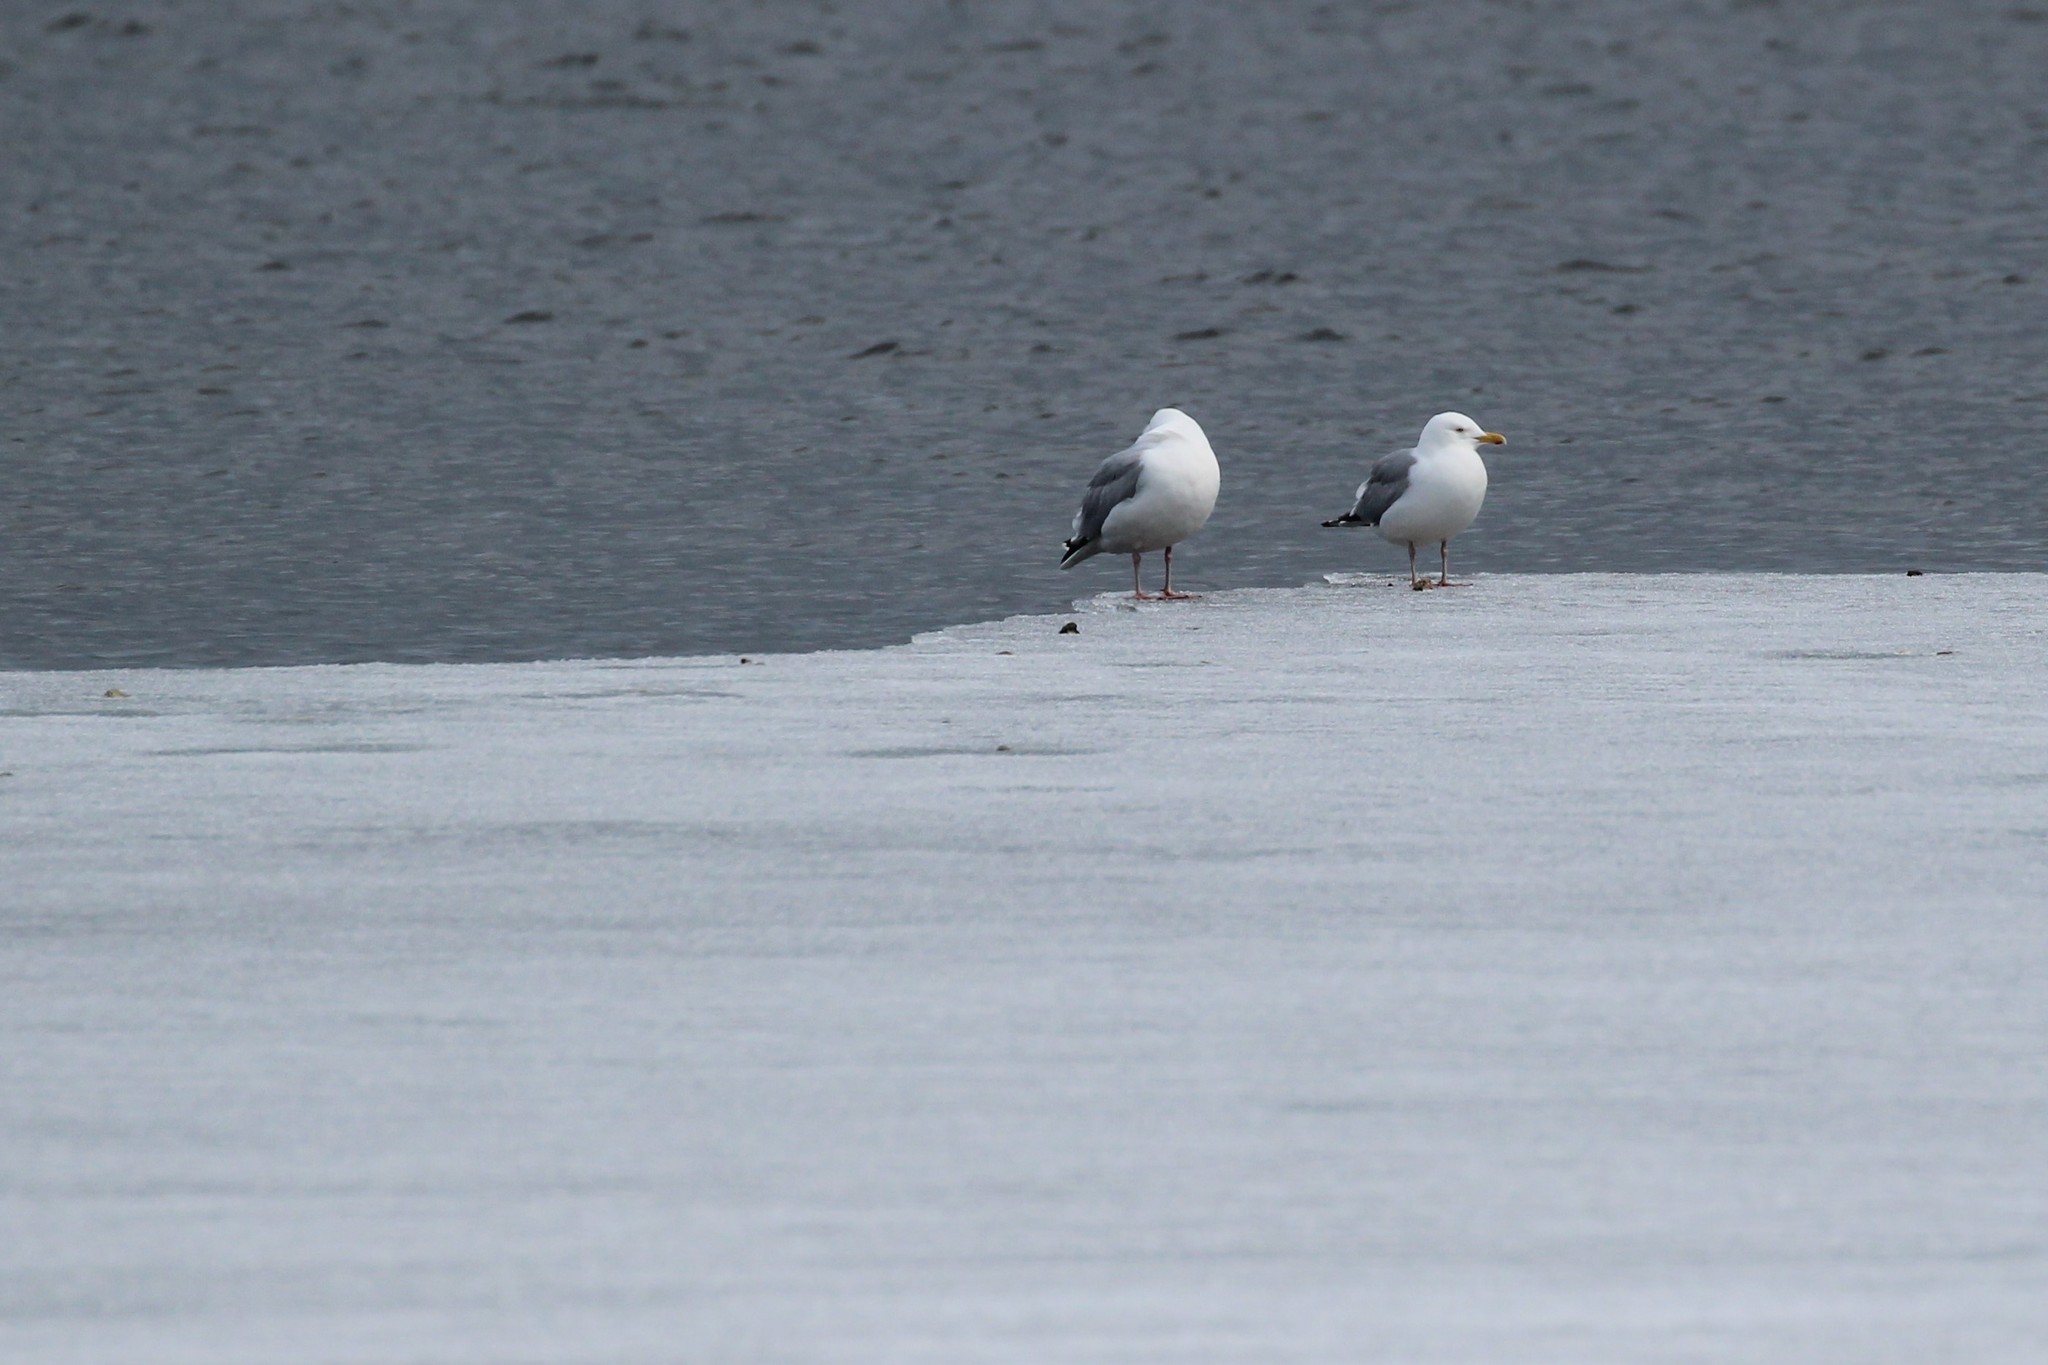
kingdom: Animalia
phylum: Chordata
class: Aves
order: Charadriiformes
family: Laridae
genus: Larus
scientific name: Larus argentatus
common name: Herring gull
